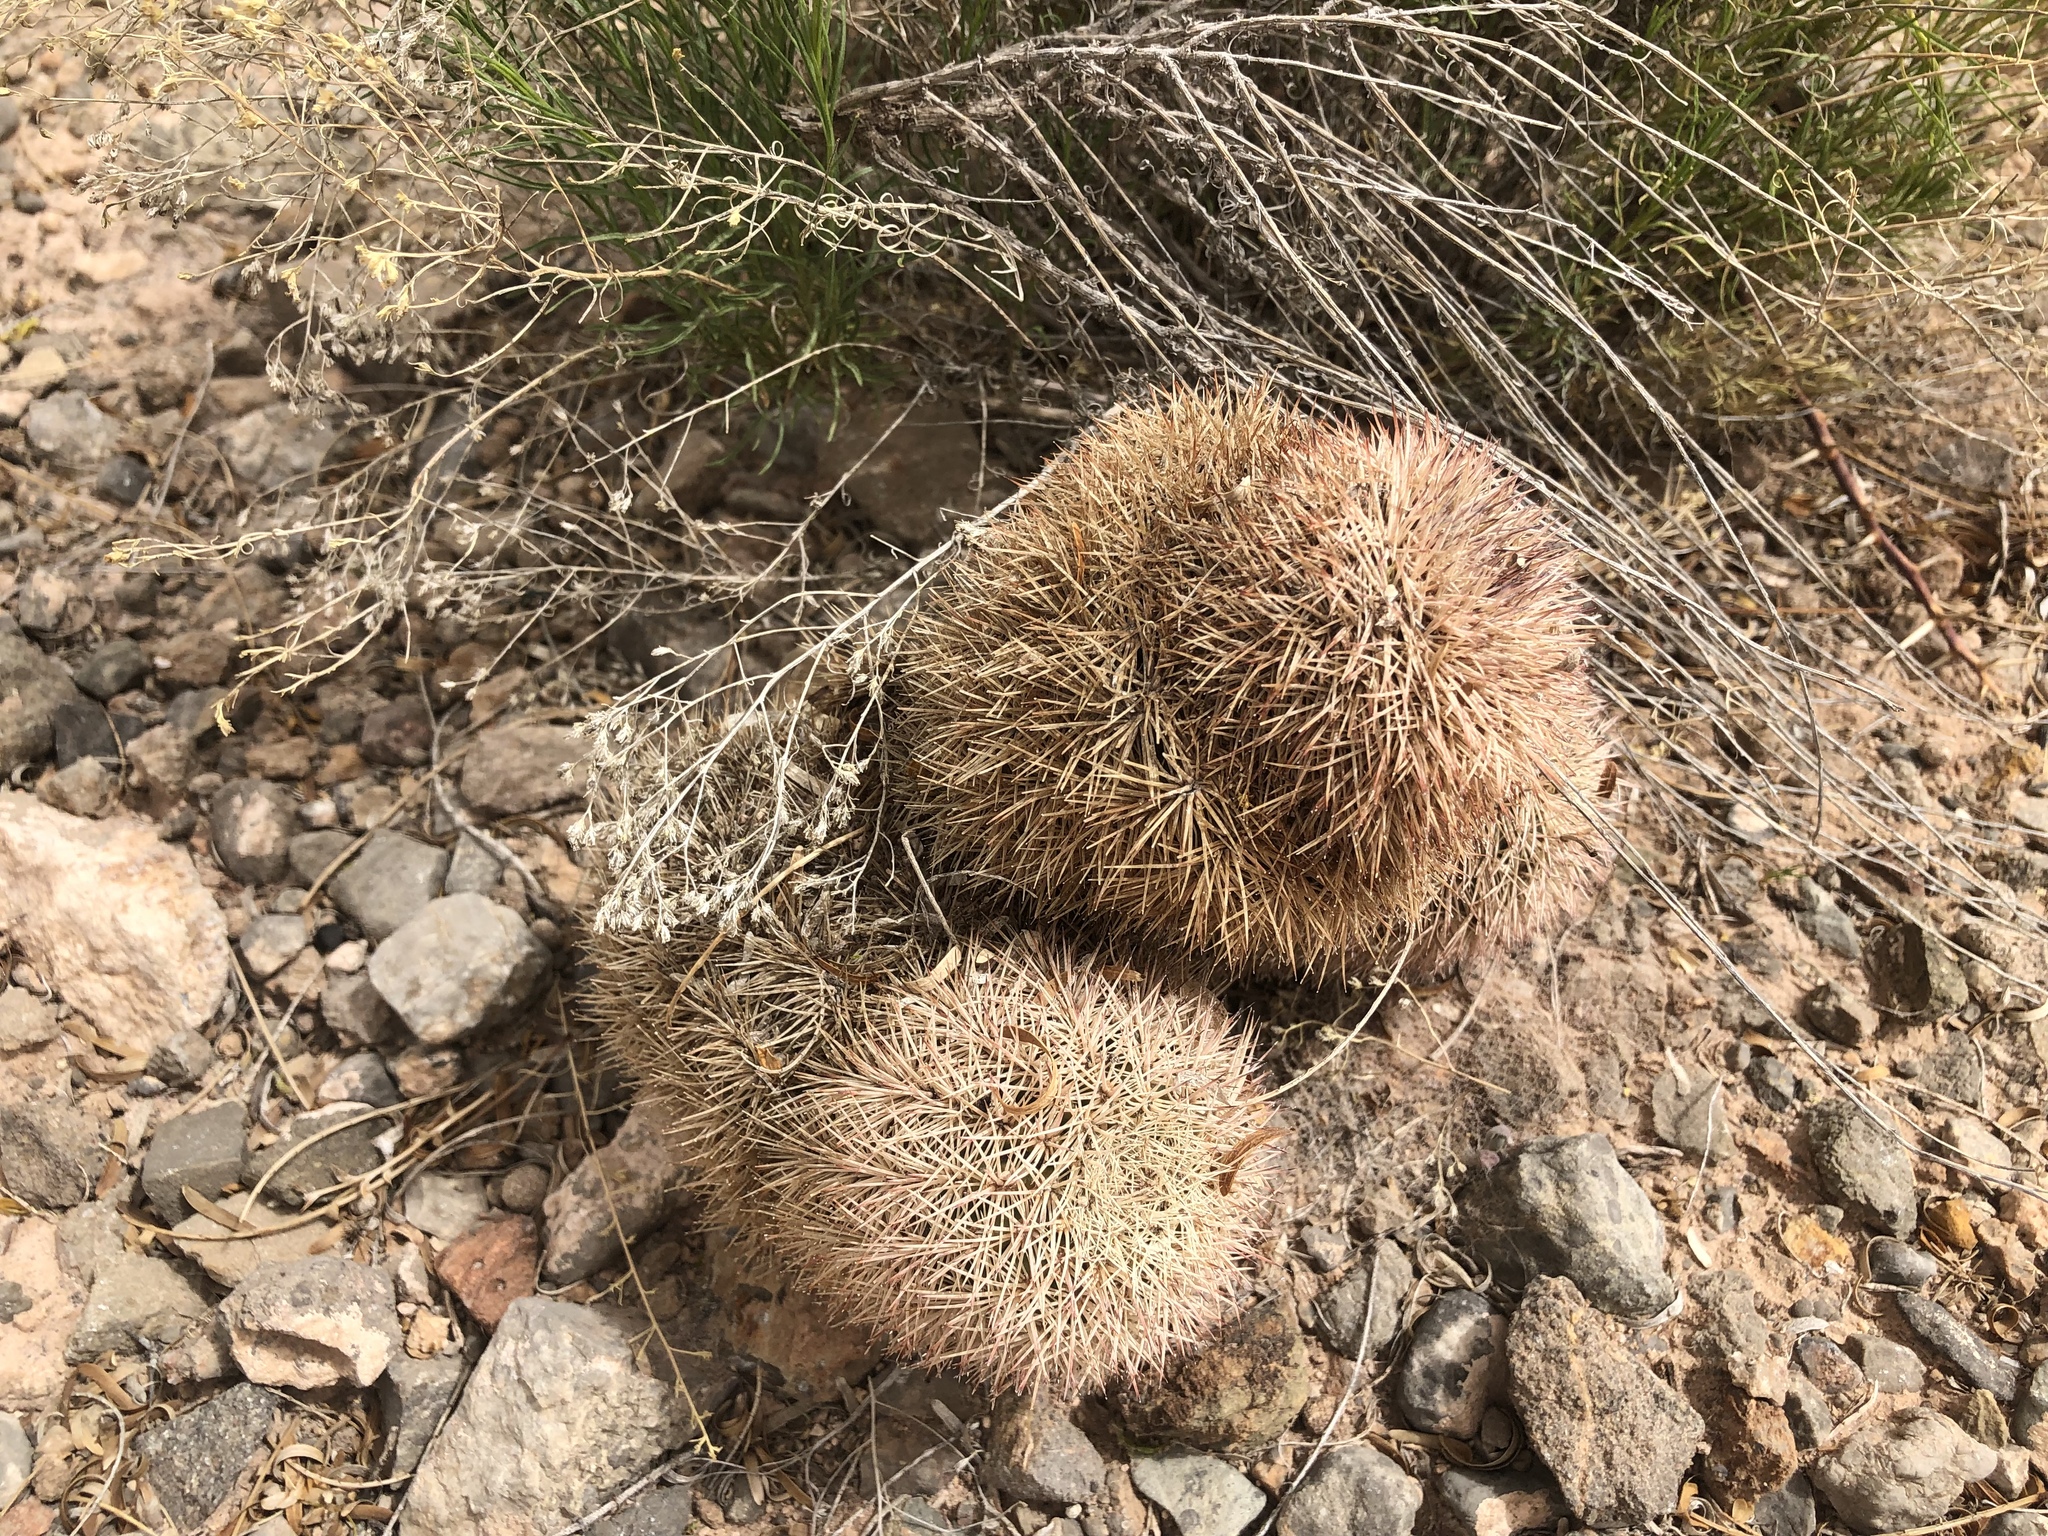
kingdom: Plantae
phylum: Tracheophyta
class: Magnoliopsida
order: Caryophyllales
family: Cactaceae
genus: Echinocereus
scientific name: Echinocereus dasyacanthus
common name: Spiny hedgehog cactus
